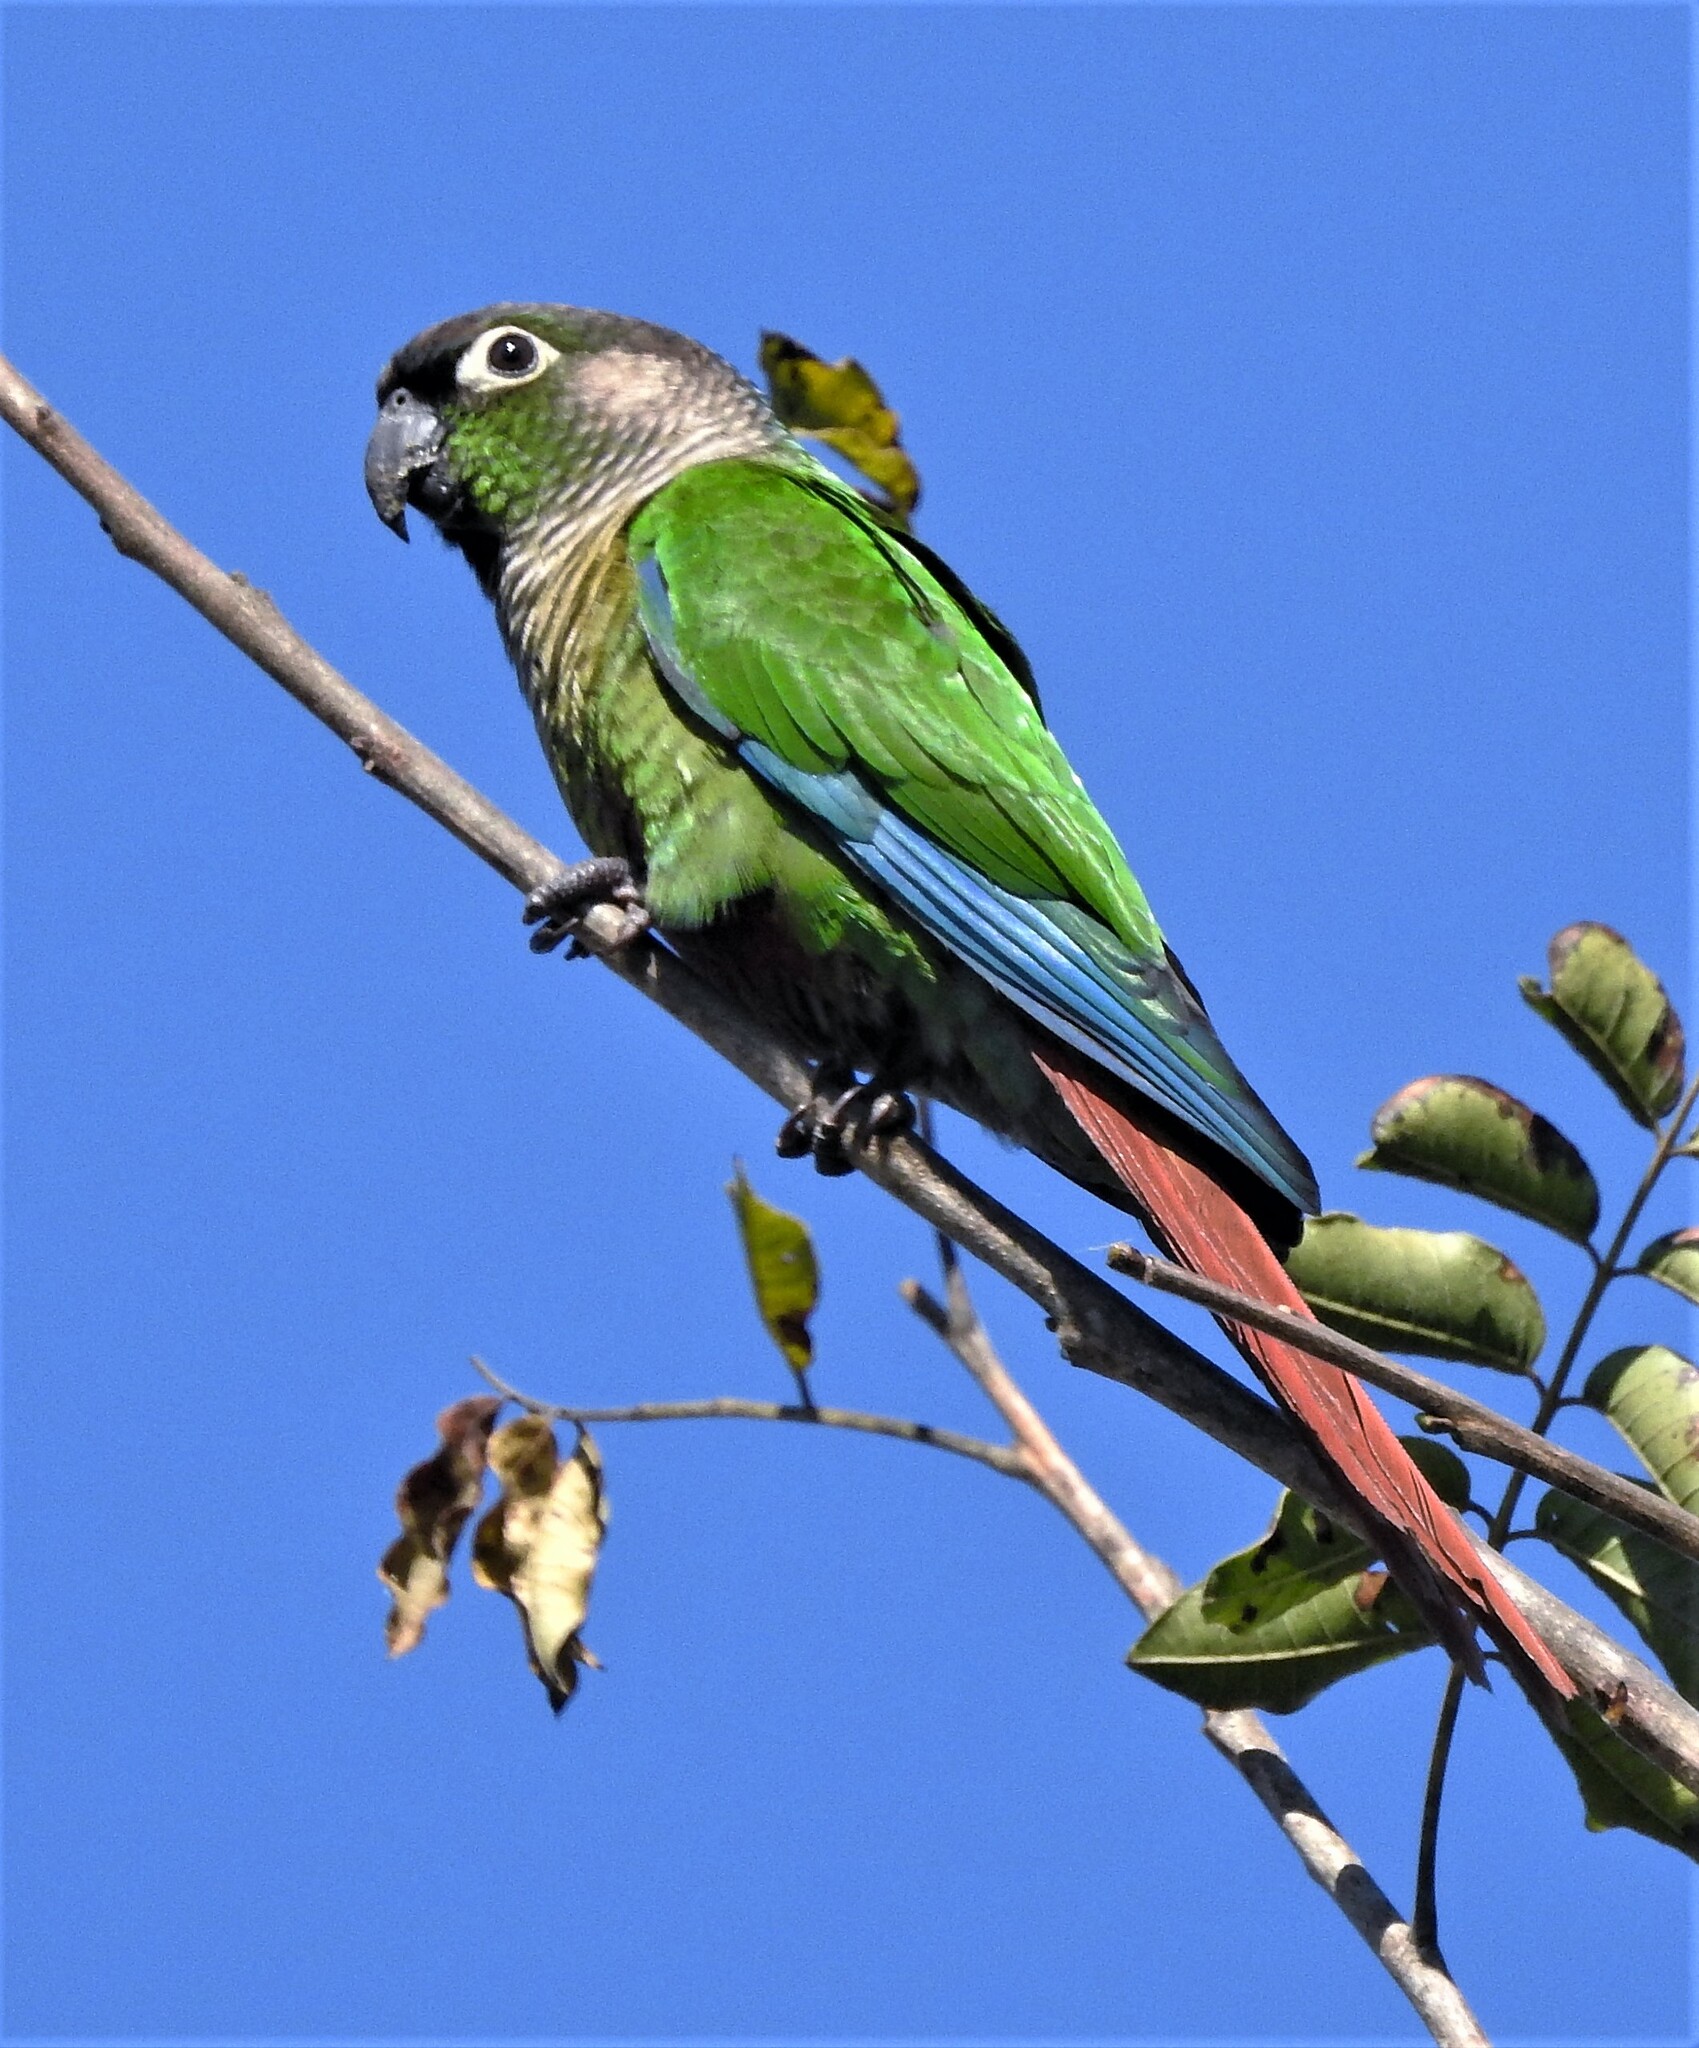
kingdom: Animalia
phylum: Chordata
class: Aves
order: Psittaciformes
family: Psittacidae
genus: Pyrrhura
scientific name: Pyrrhura molinae
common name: Green-cheeked parakeet
